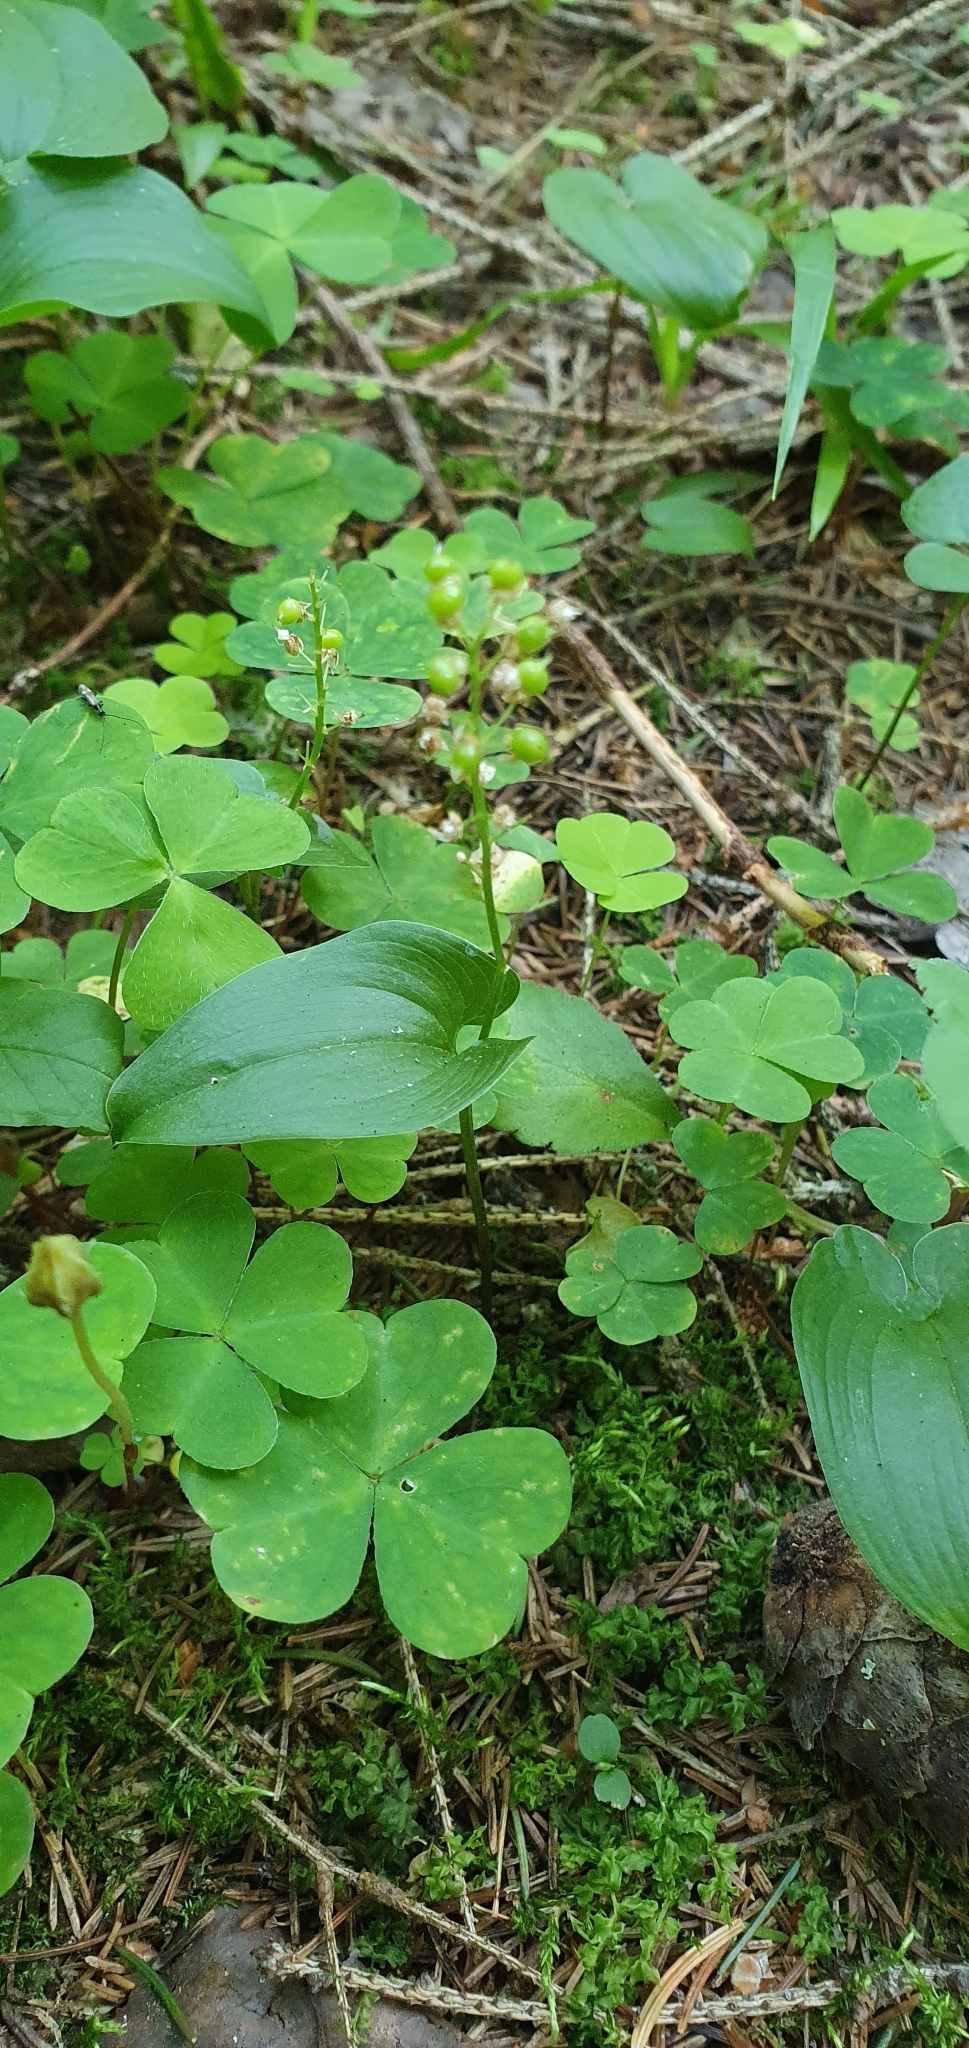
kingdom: Plantae
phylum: Tracheophyta
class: Liliopsida
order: Asparagales
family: Asparagaceae
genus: Maianthemum
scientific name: Maianthemum bifolium
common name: May lily
